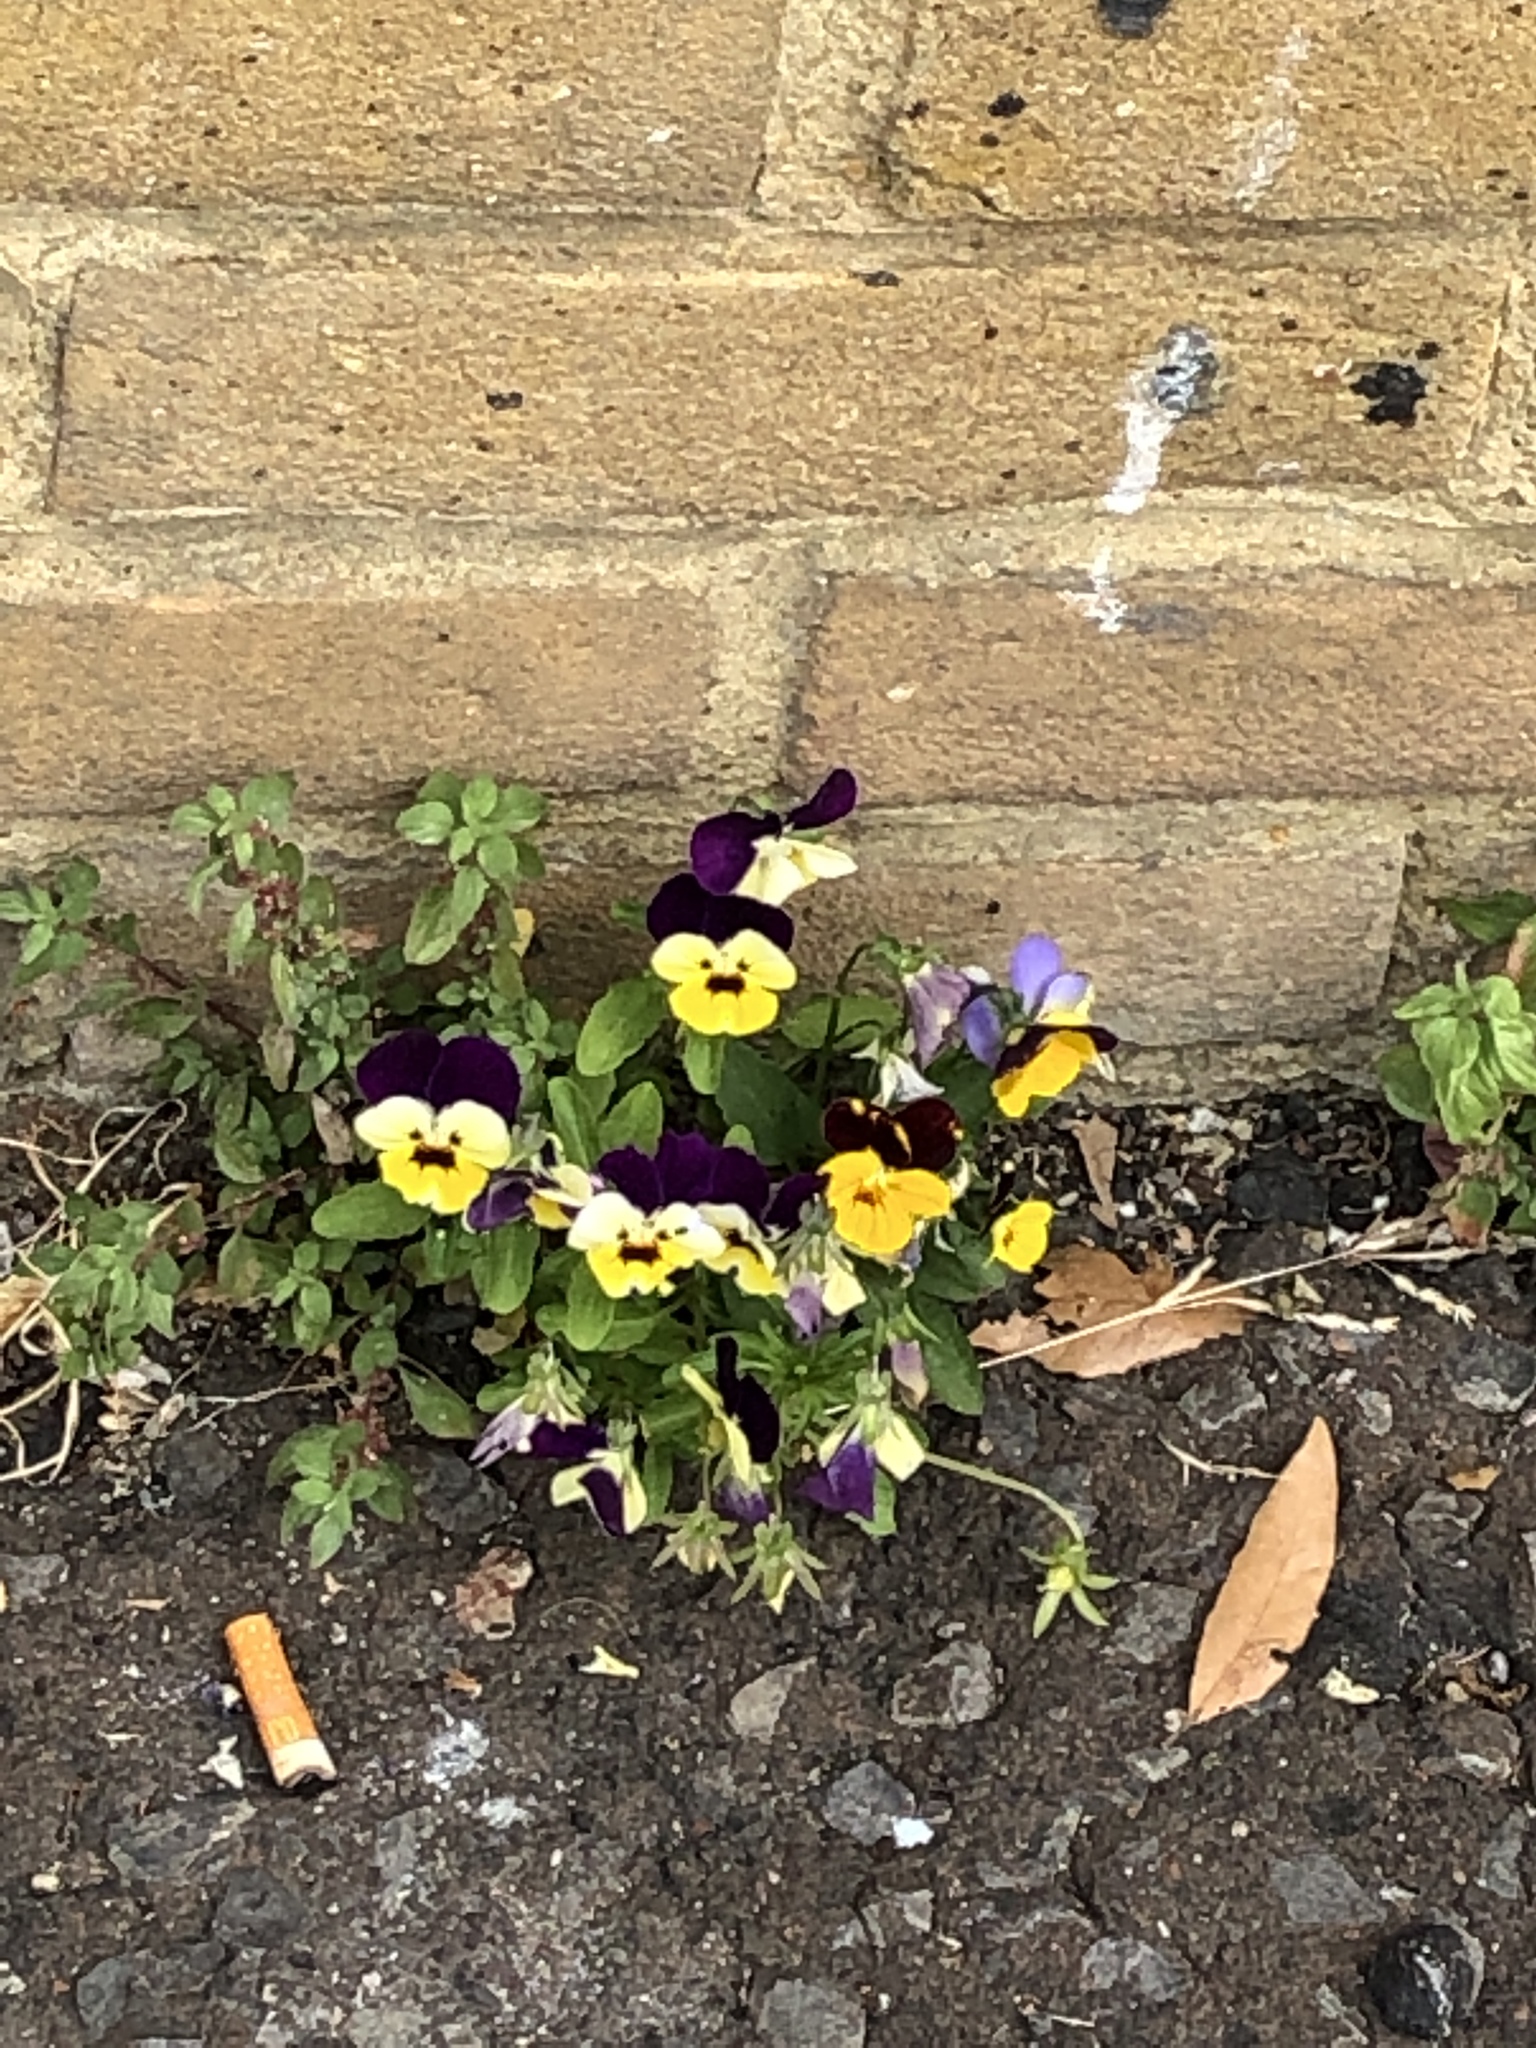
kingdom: Plantae
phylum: Tracheophyta
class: Magnoliopsida
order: Malpighiales
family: Violaceae
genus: Viola
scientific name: Viola wittrockiana
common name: Garden pansy
